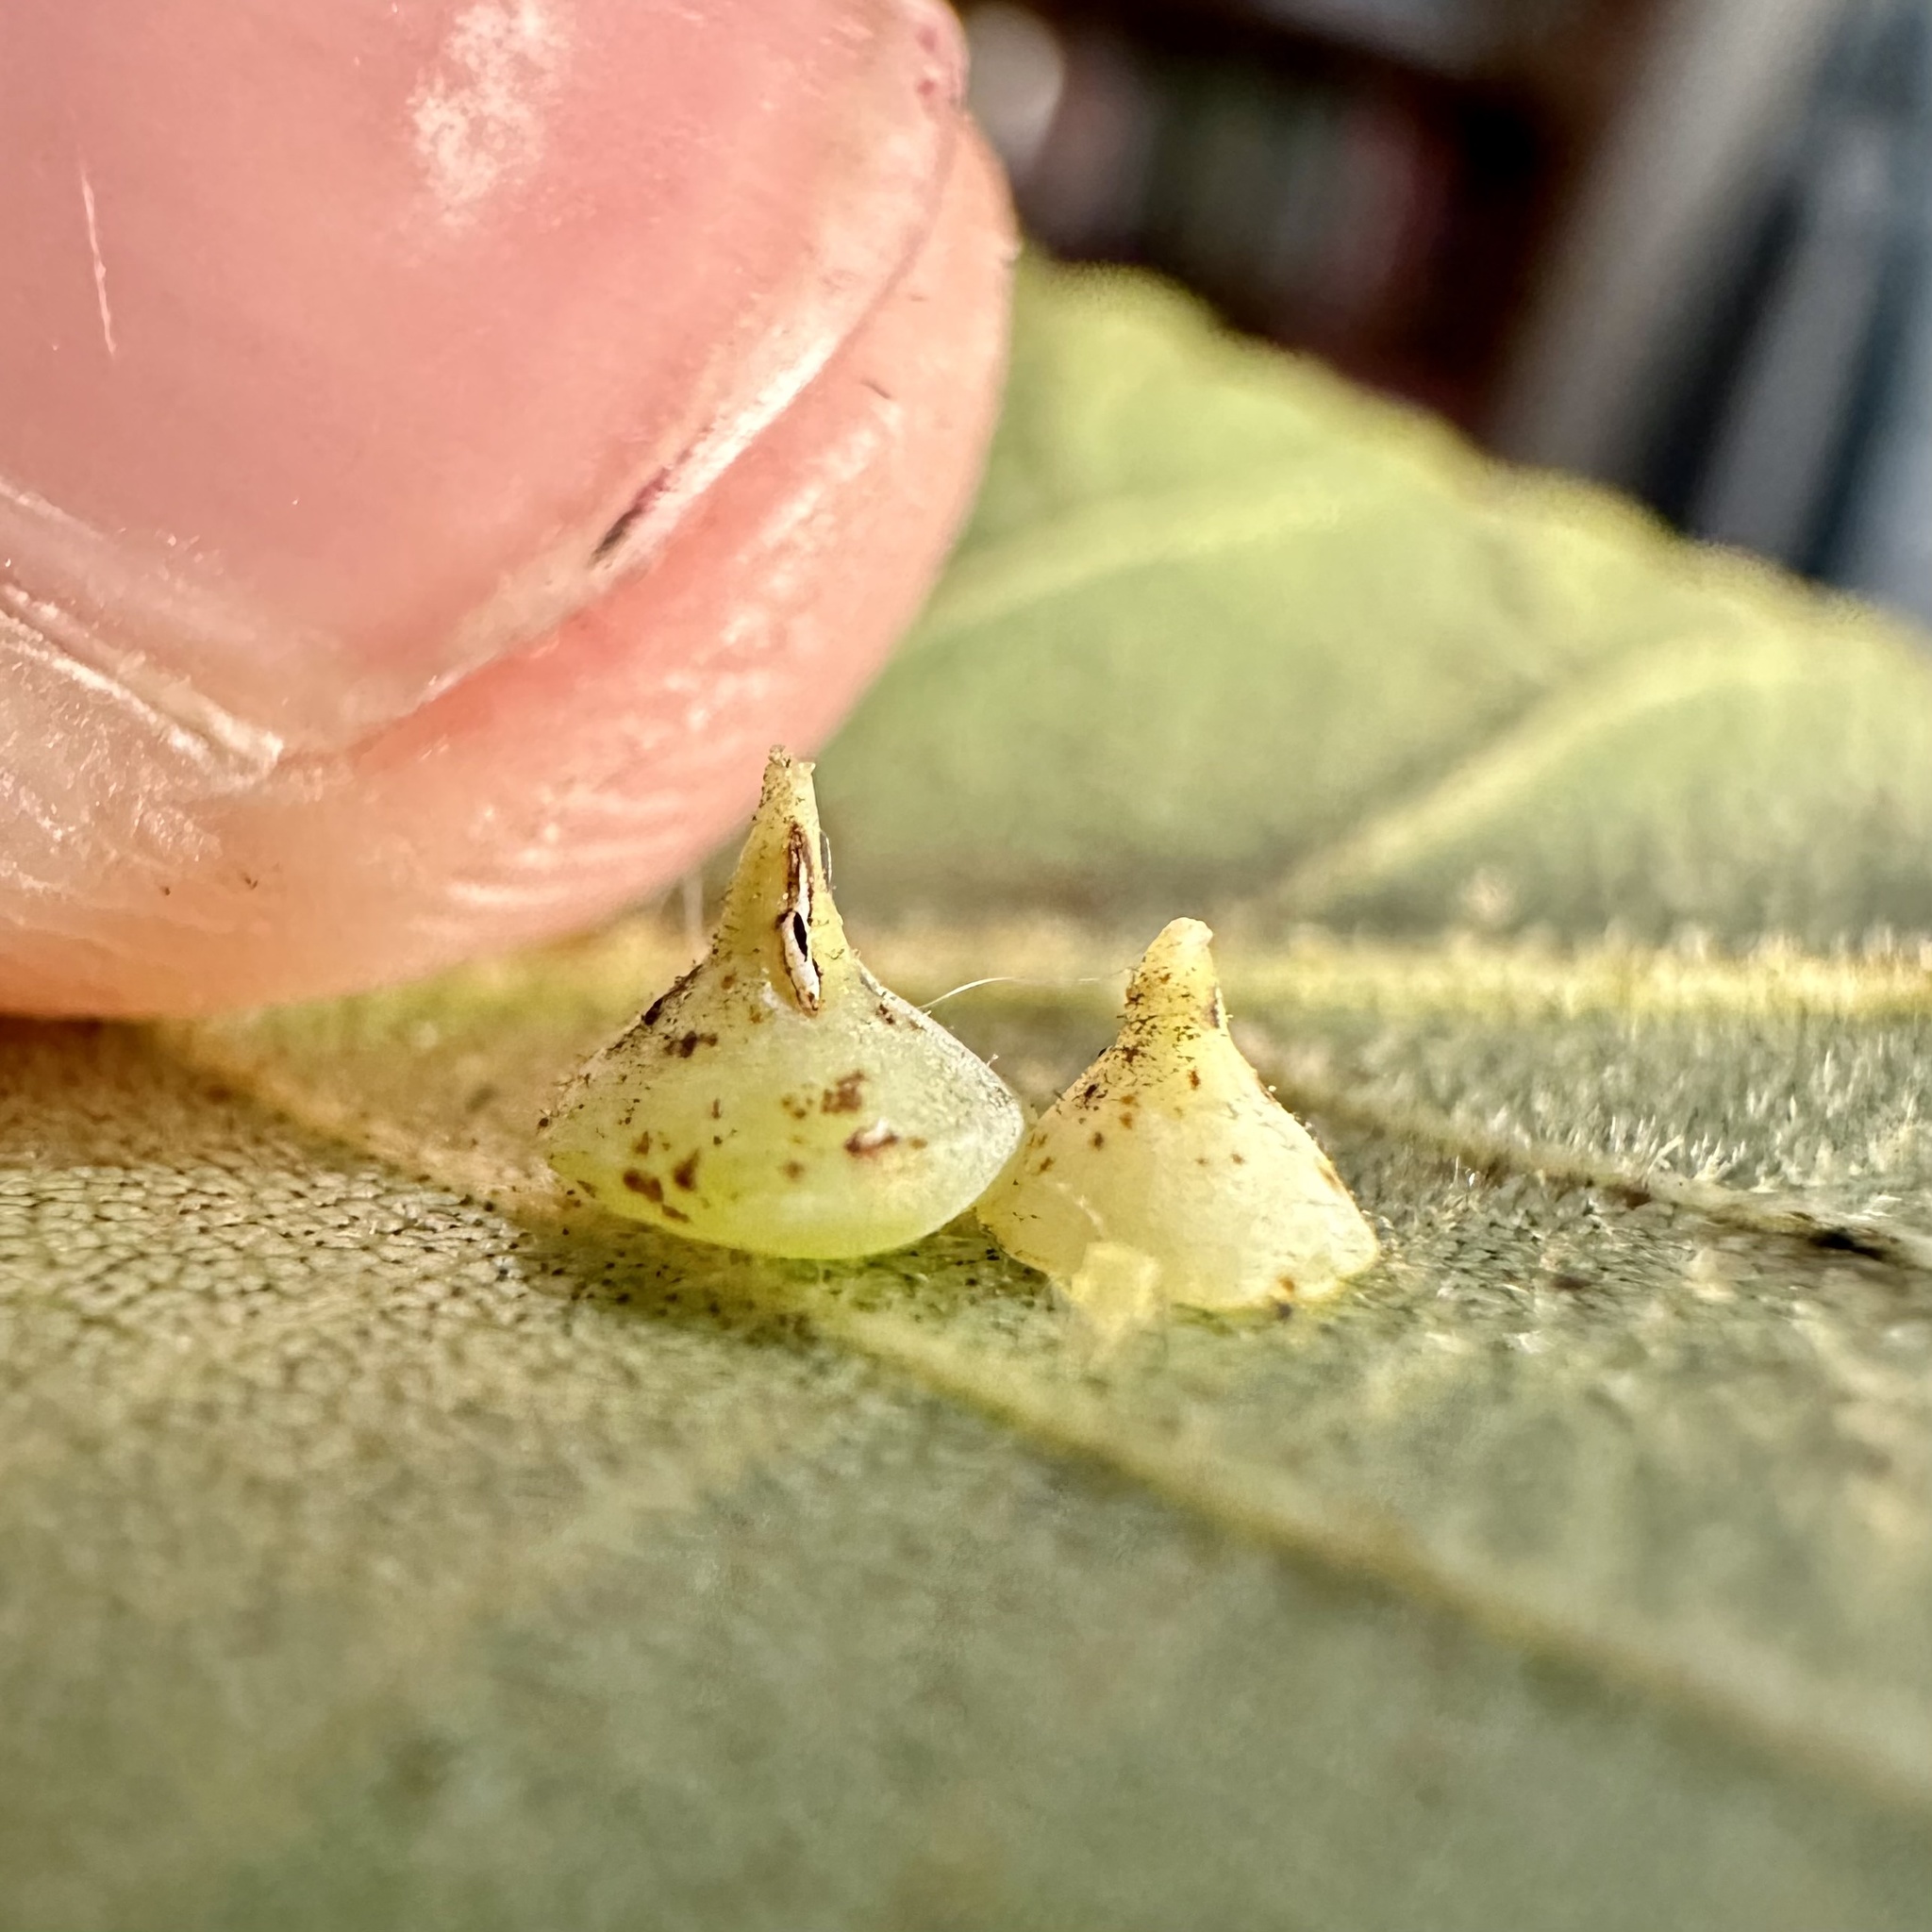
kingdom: Animalia
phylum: Arthropoda
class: Insecta
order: Diptera
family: Cecidomyiidae
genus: Caryomyia
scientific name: Caryomyia sanguinolenta
